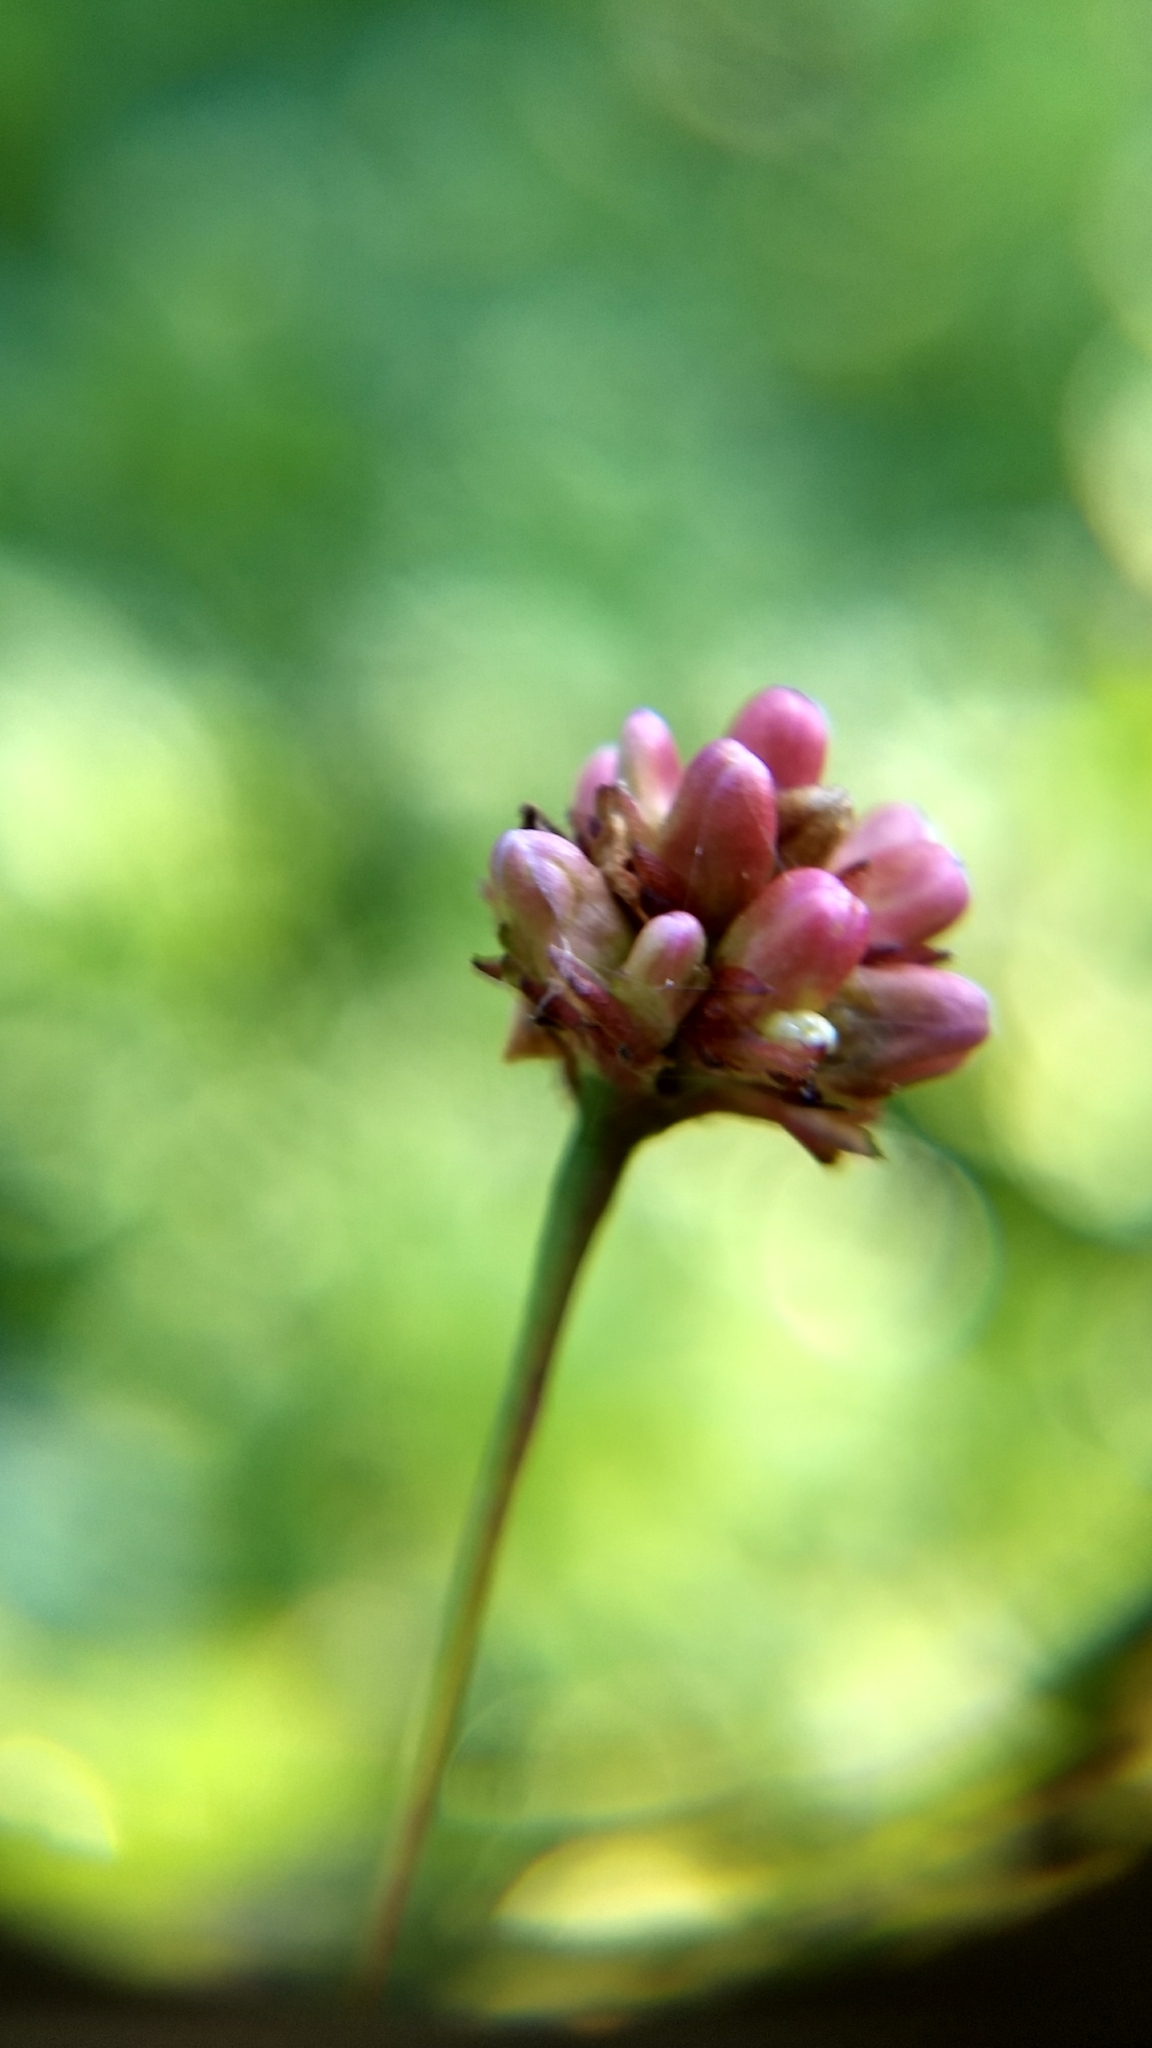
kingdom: Plantae
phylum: Tracheophyta
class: Magnoliopsida
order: Caryophyllales
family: Polygonaceae
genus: Persicaria
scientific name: Persicaria sagittata
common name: American tearthumb
